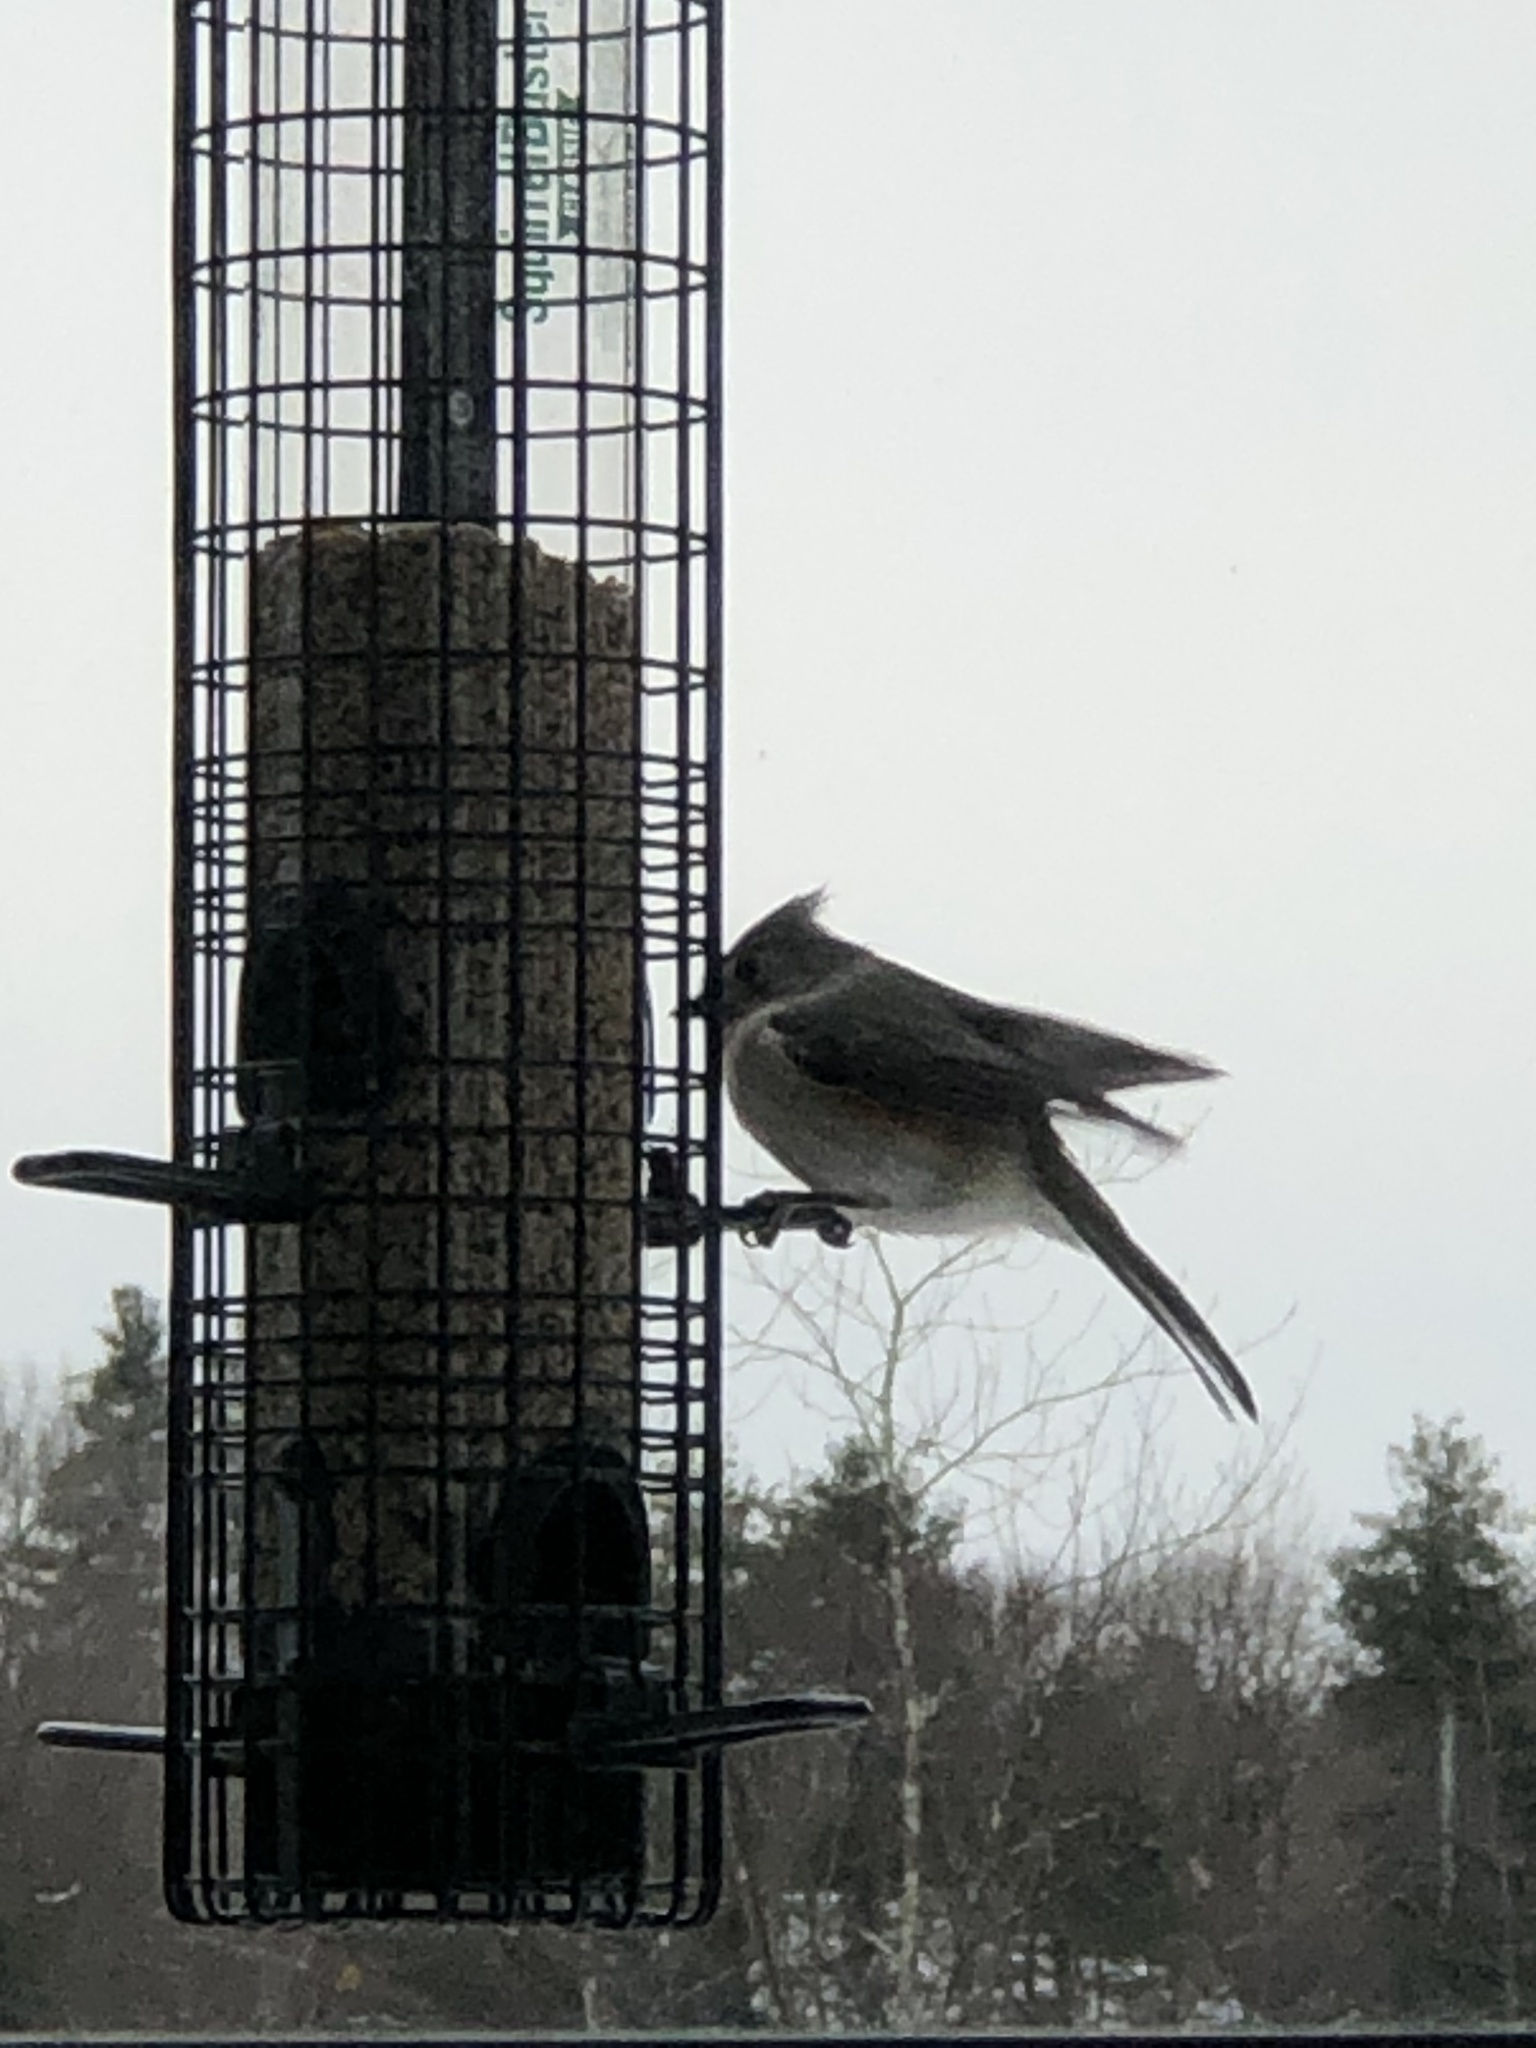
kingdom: Animalia
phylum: Chordata
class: Aves
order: Passeriformes
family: Paridae
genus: Baeolophus
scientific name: Baeolophus bicolor
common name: Tufted titmouse
